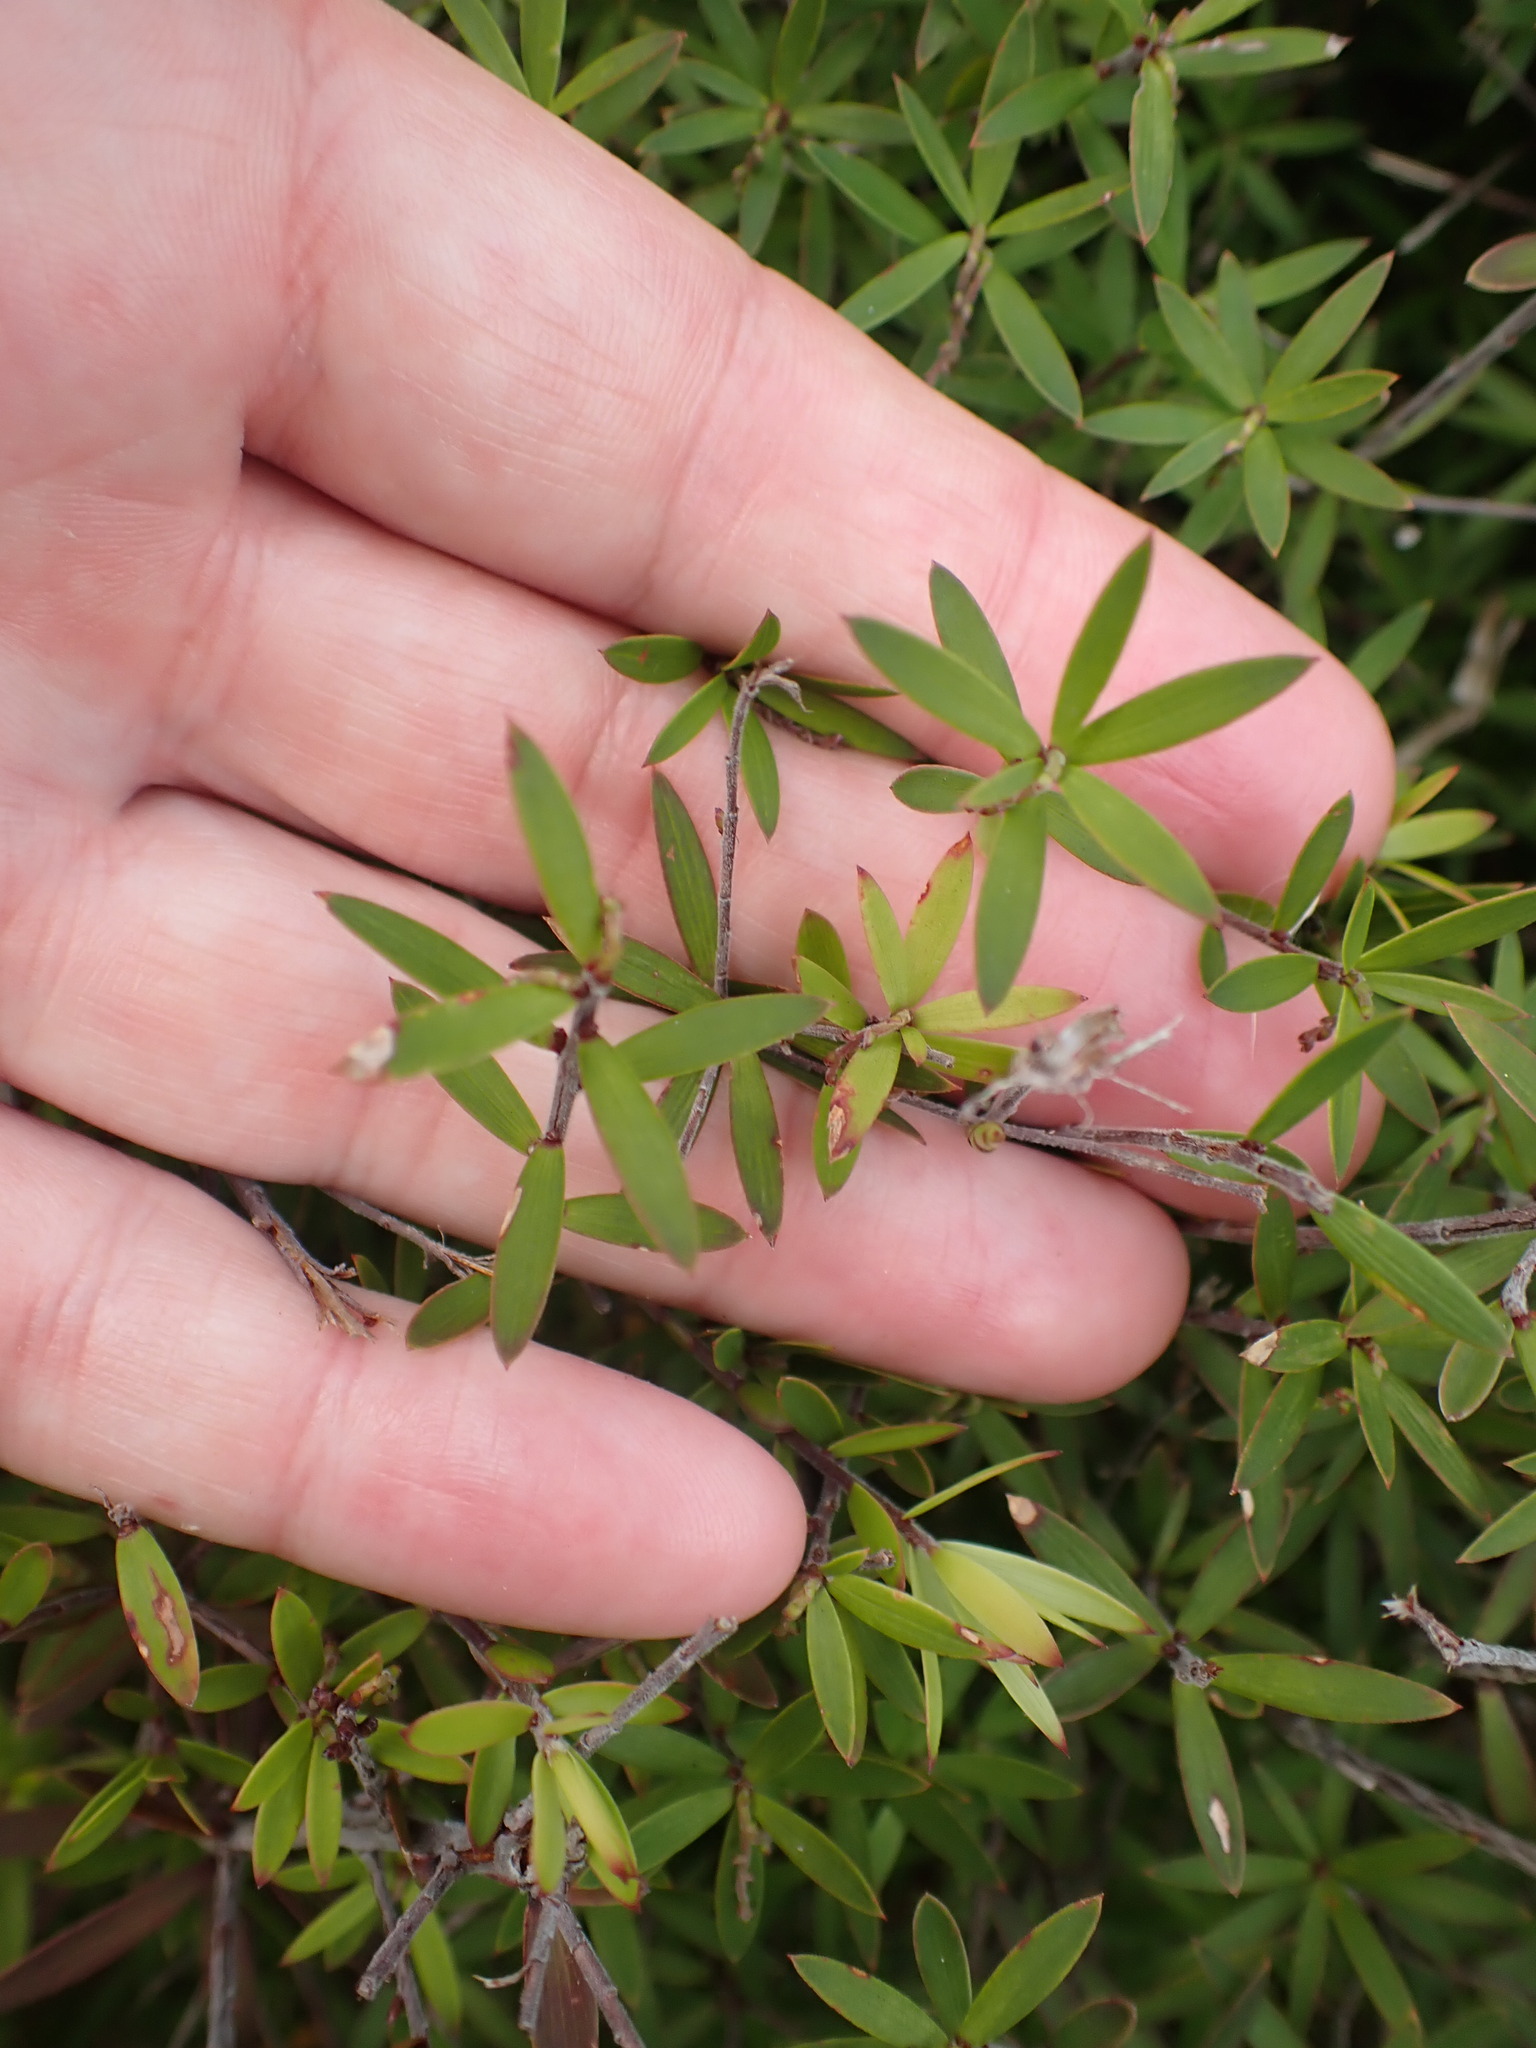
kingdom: Plantae
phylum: Tracheophyta
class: Magnoliopsida
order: Ericales
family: Ericaceae
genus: Leucopogon
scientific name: Leucopogon fasciculatus
